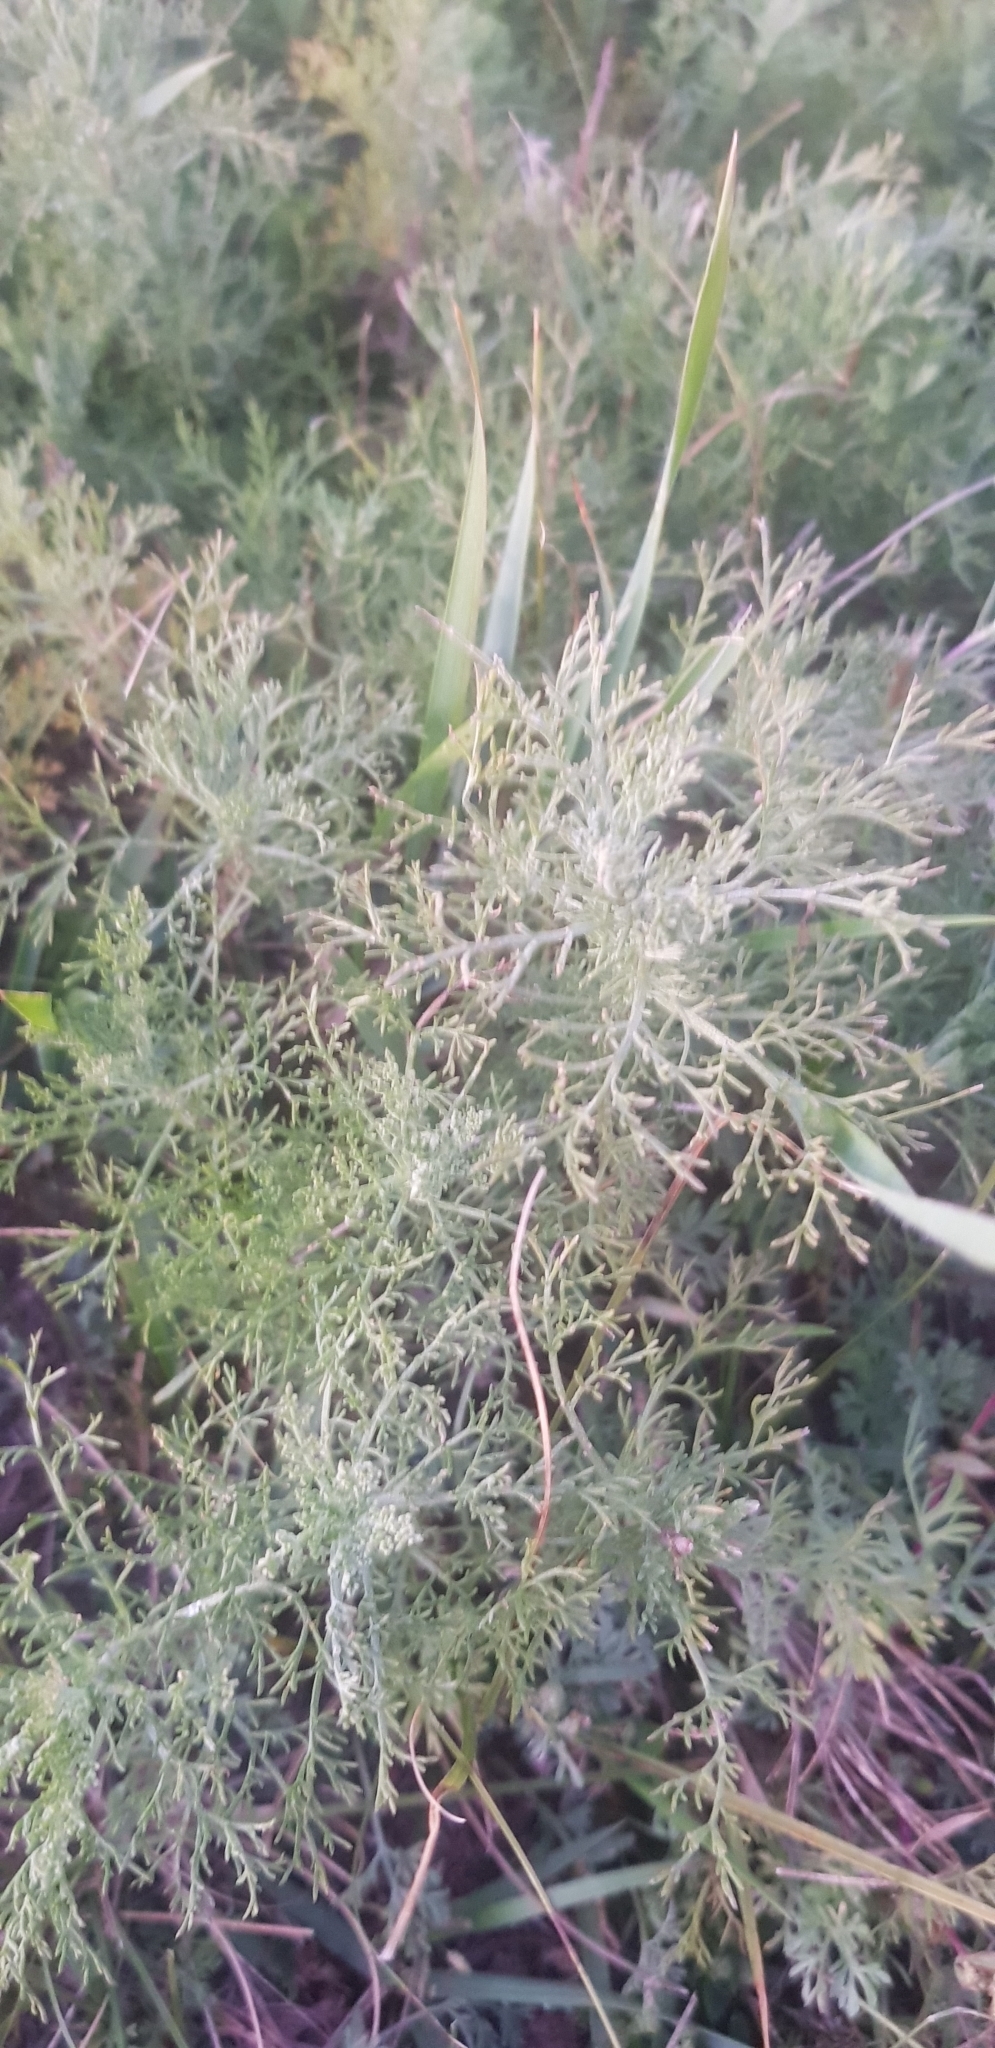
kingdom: Plantae
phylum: Tracheophyta
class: Magnoliopsida
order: Asterales
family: Asteraceae
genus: Artemisia
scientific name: Artemisia adamsii
